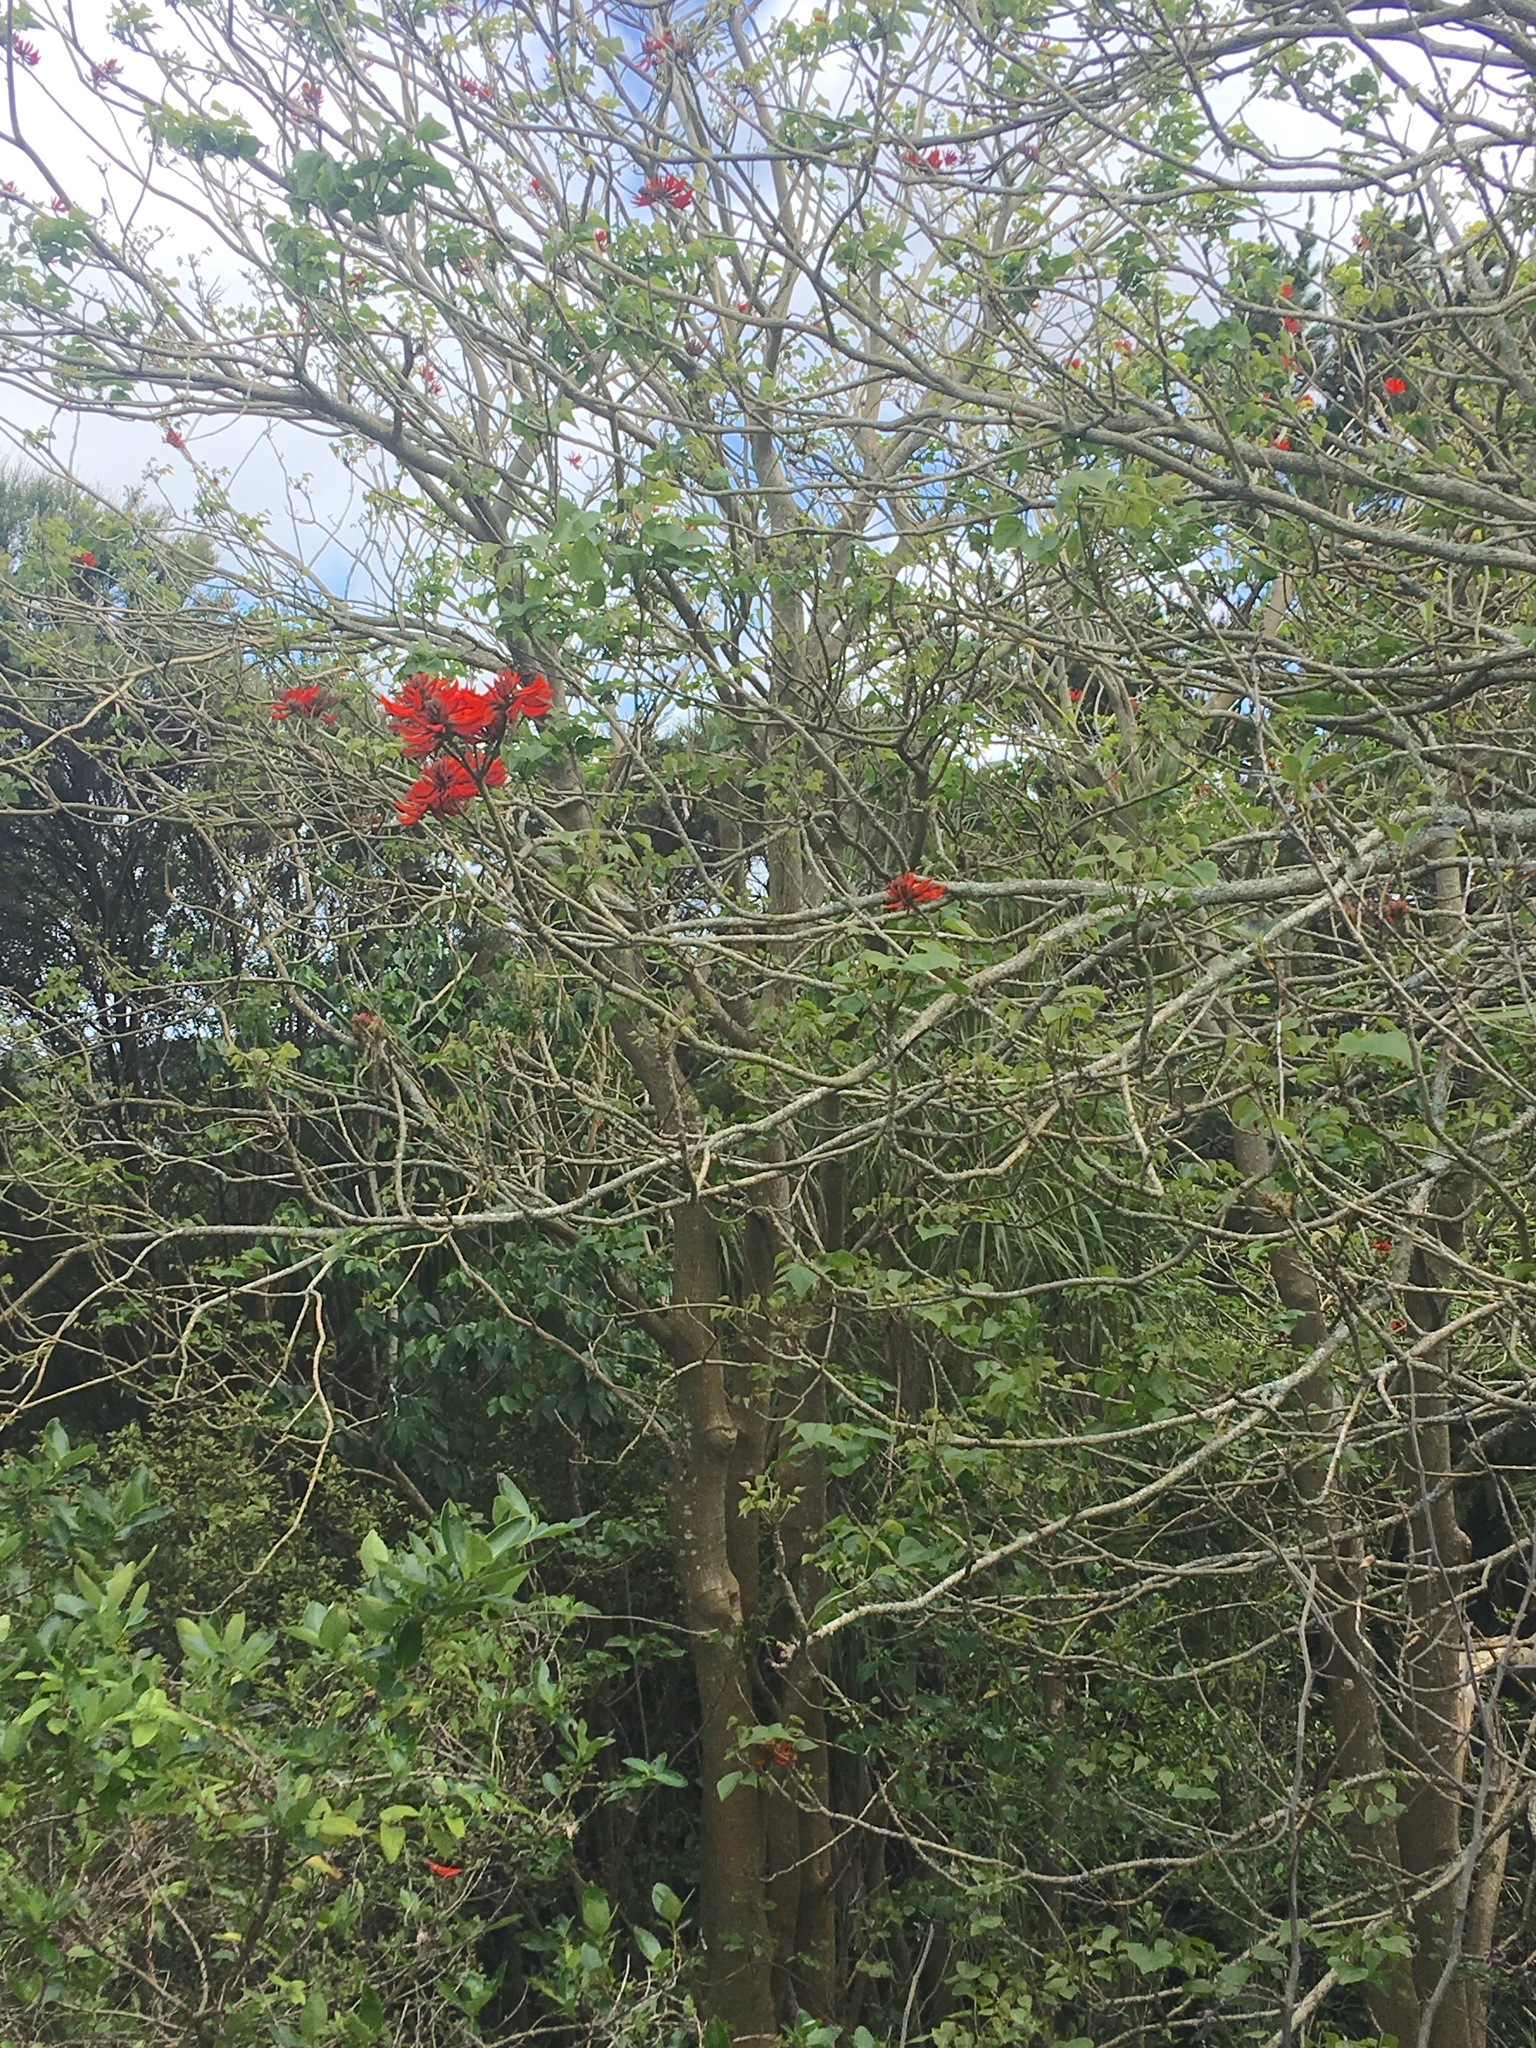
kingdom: Plantae
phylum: Tracheophyta
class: Magnoliopsida
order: Fabales
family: Fabaceae
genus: Erythrina
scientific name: Erythrina sykesii
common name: Coraltree
